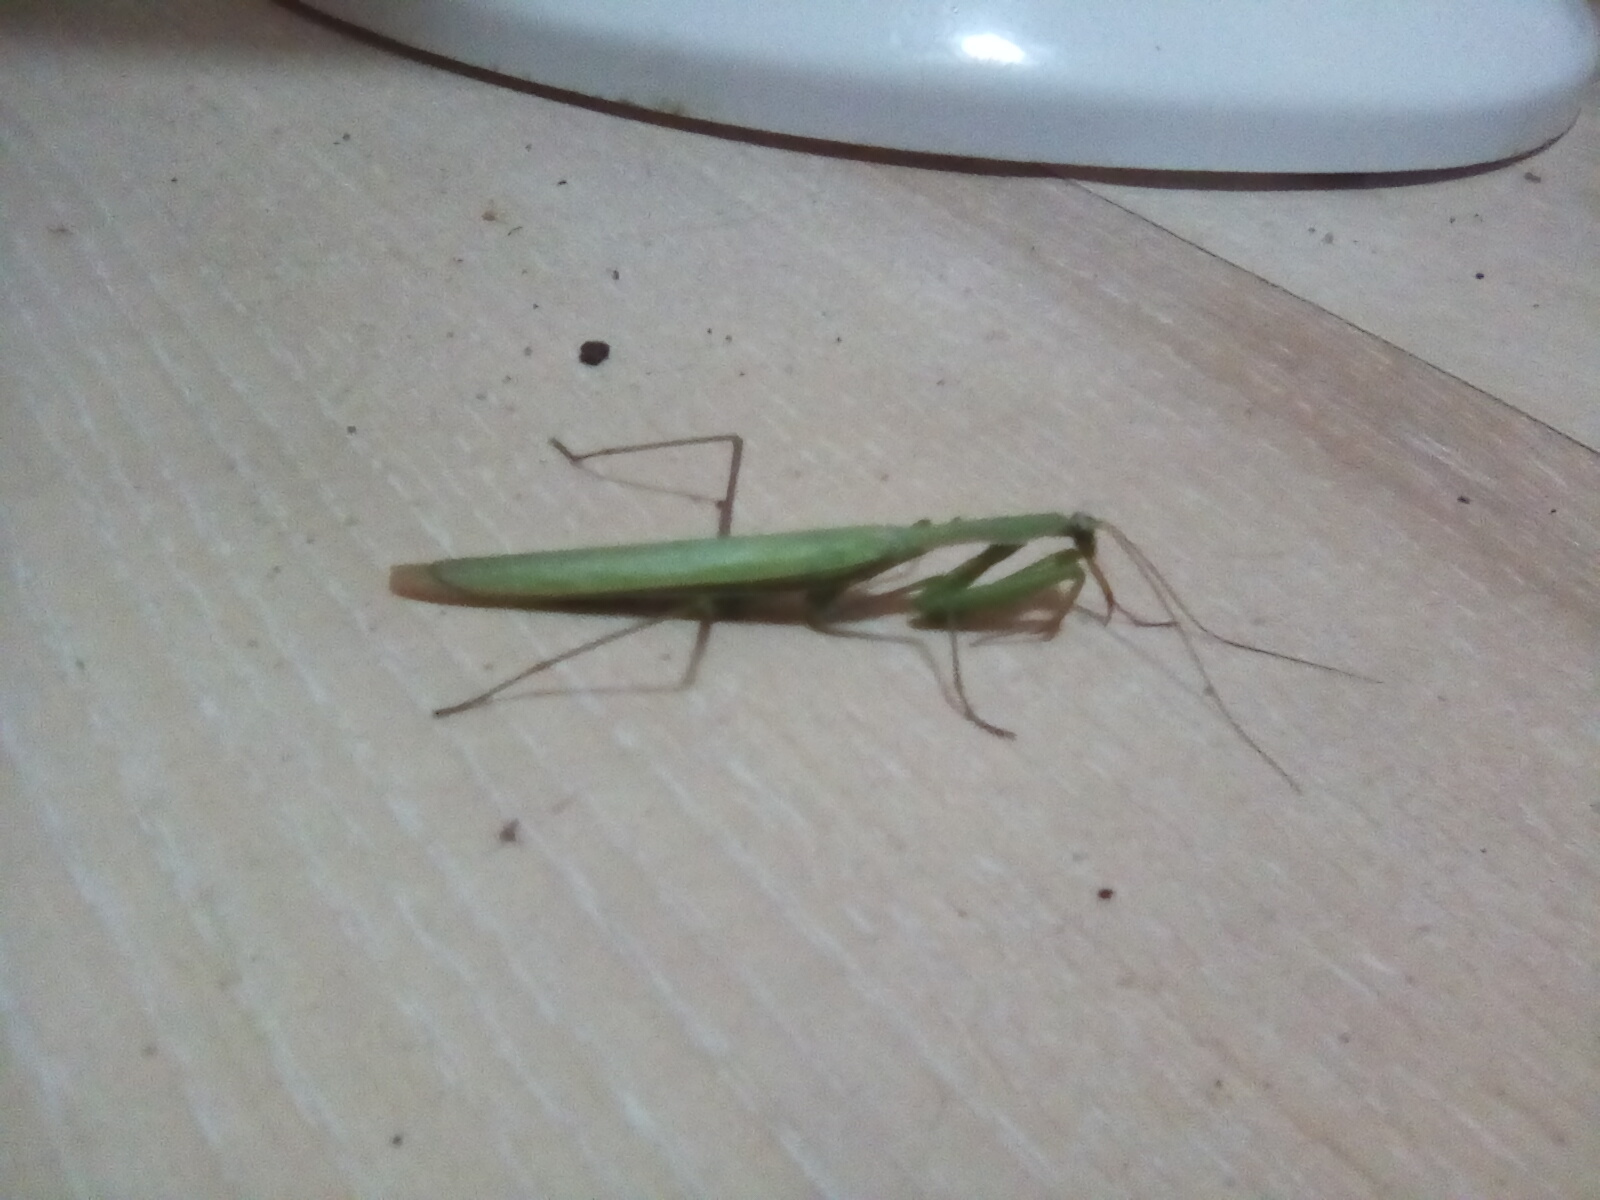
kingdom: Animalia
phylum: Arthropoda
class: Insecta
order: Mantodea
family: Mantidae
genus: Mantis
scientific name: Mantis religiosa
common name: Praying mantis
